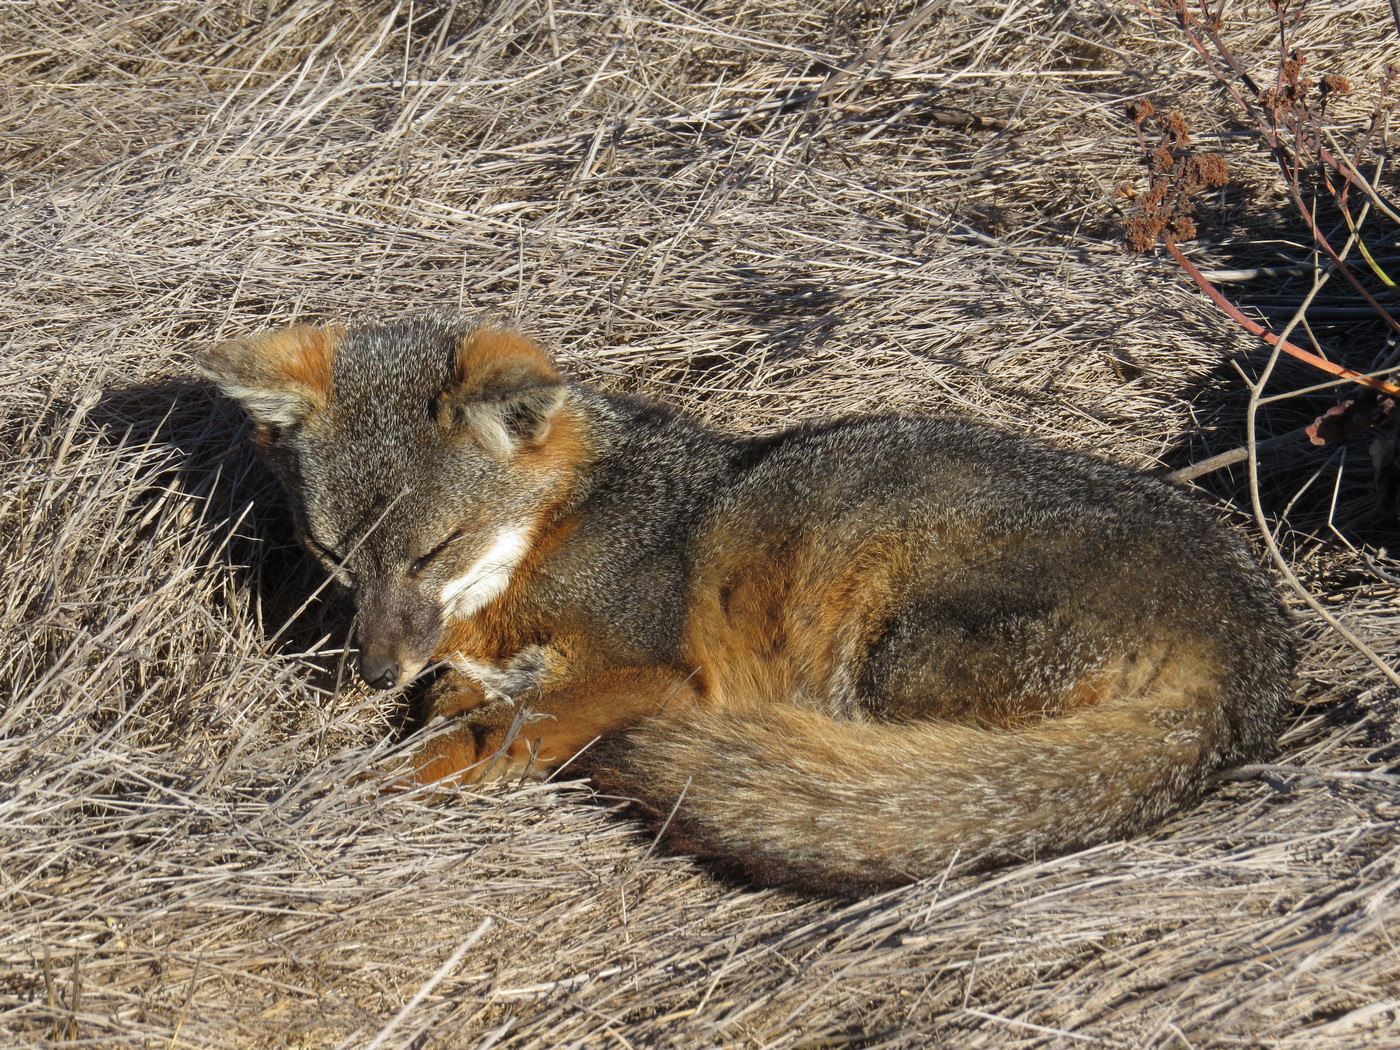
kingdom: Animalia
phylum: Chordata
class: Mammalia
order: Carnivora
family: Canidae
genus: Urocyon
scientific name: Urocyon littoralis
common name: Island gray fox
